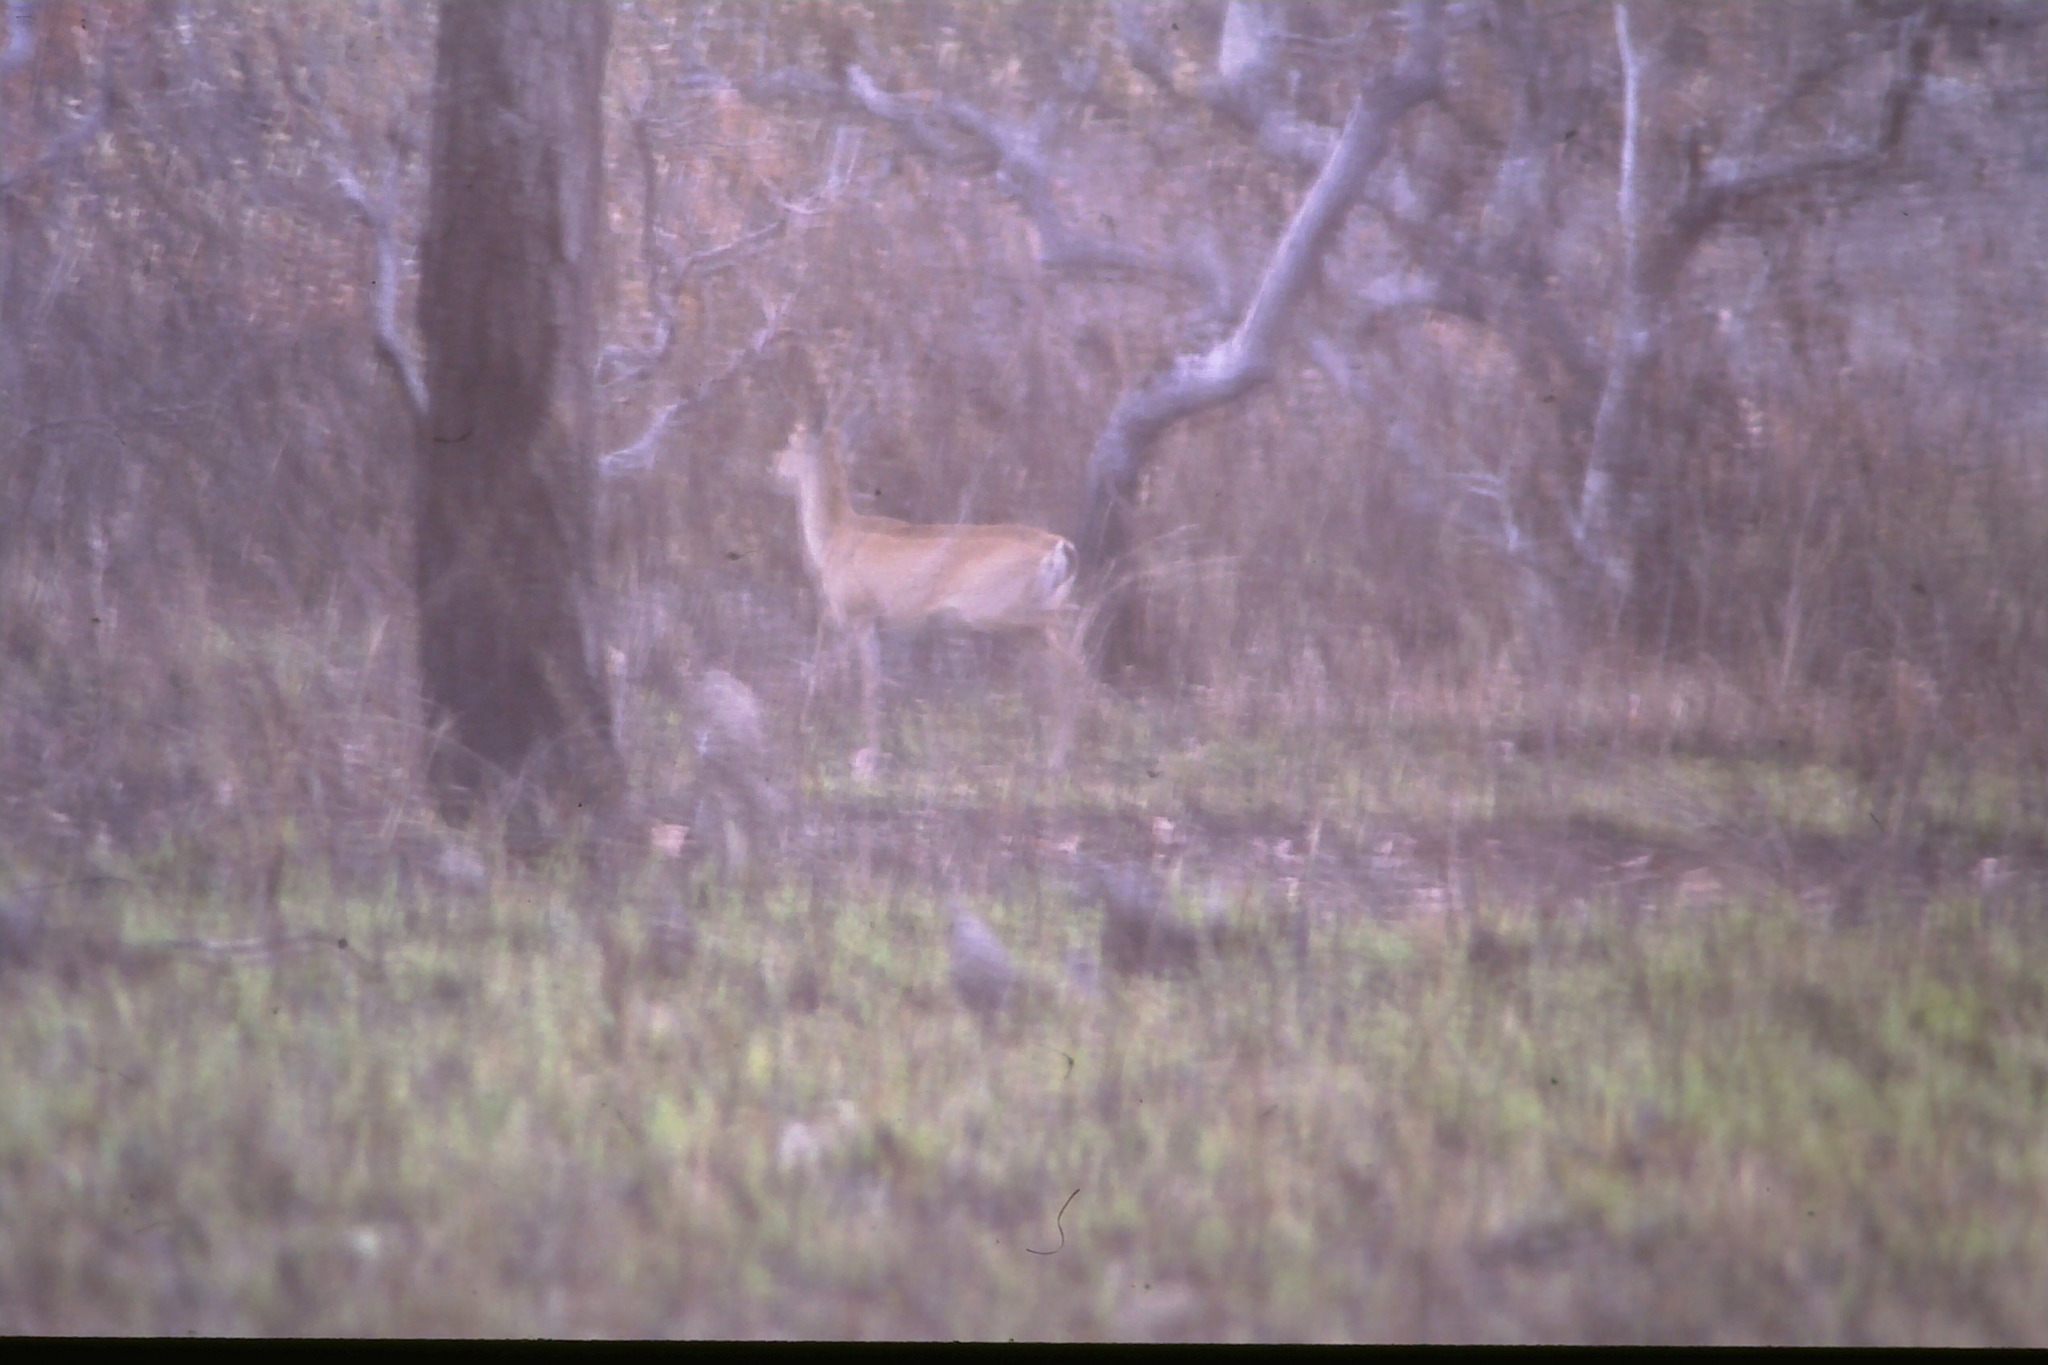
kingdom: Animalia
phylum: Chordata
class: Mammalia
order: Artiodactyla
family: Cervidae
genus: Ozotoceros
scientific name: Ozotoceros bezoarticus
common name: Pampas deer
